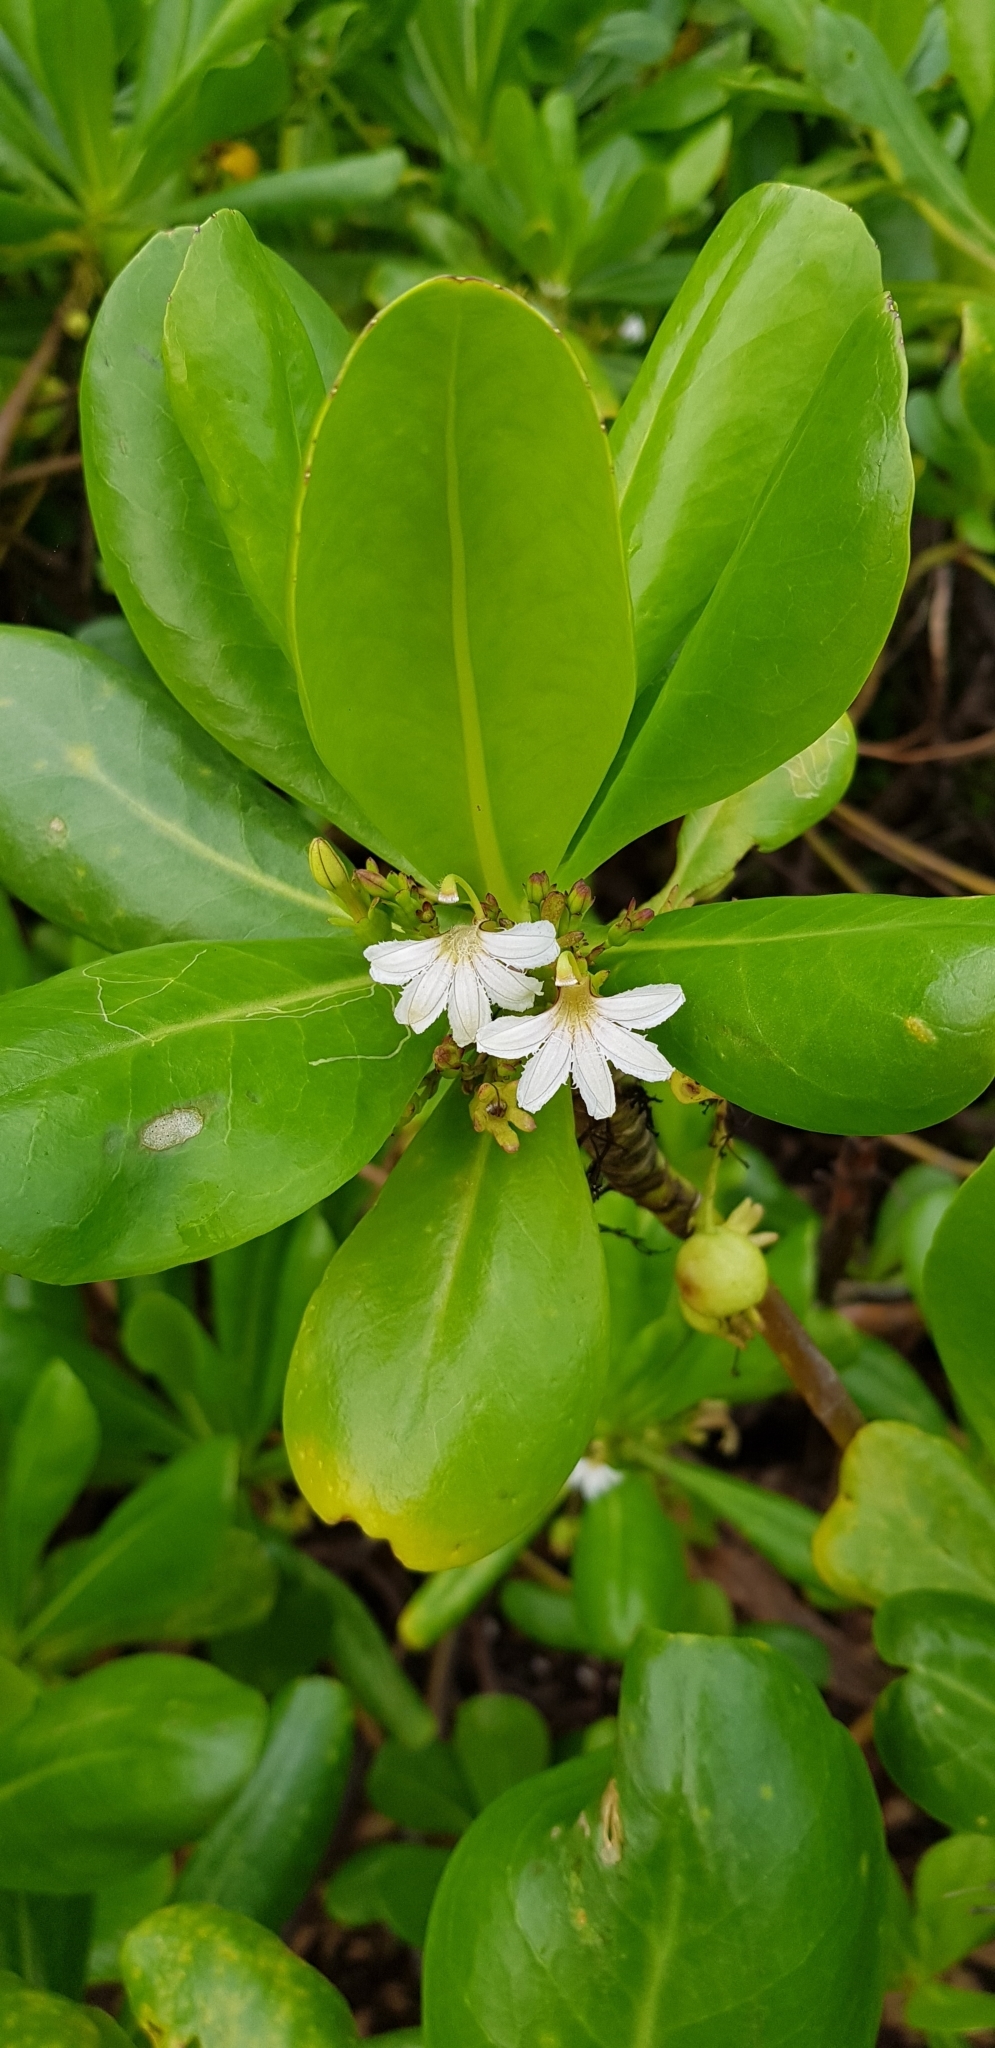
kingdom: Plantae
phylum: Tracheophyta
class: Magnoliopsida
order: Asterales
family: Goodeniaceae
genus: Scaevola
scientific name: Scaevola taccada
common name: Sea lettucetree
